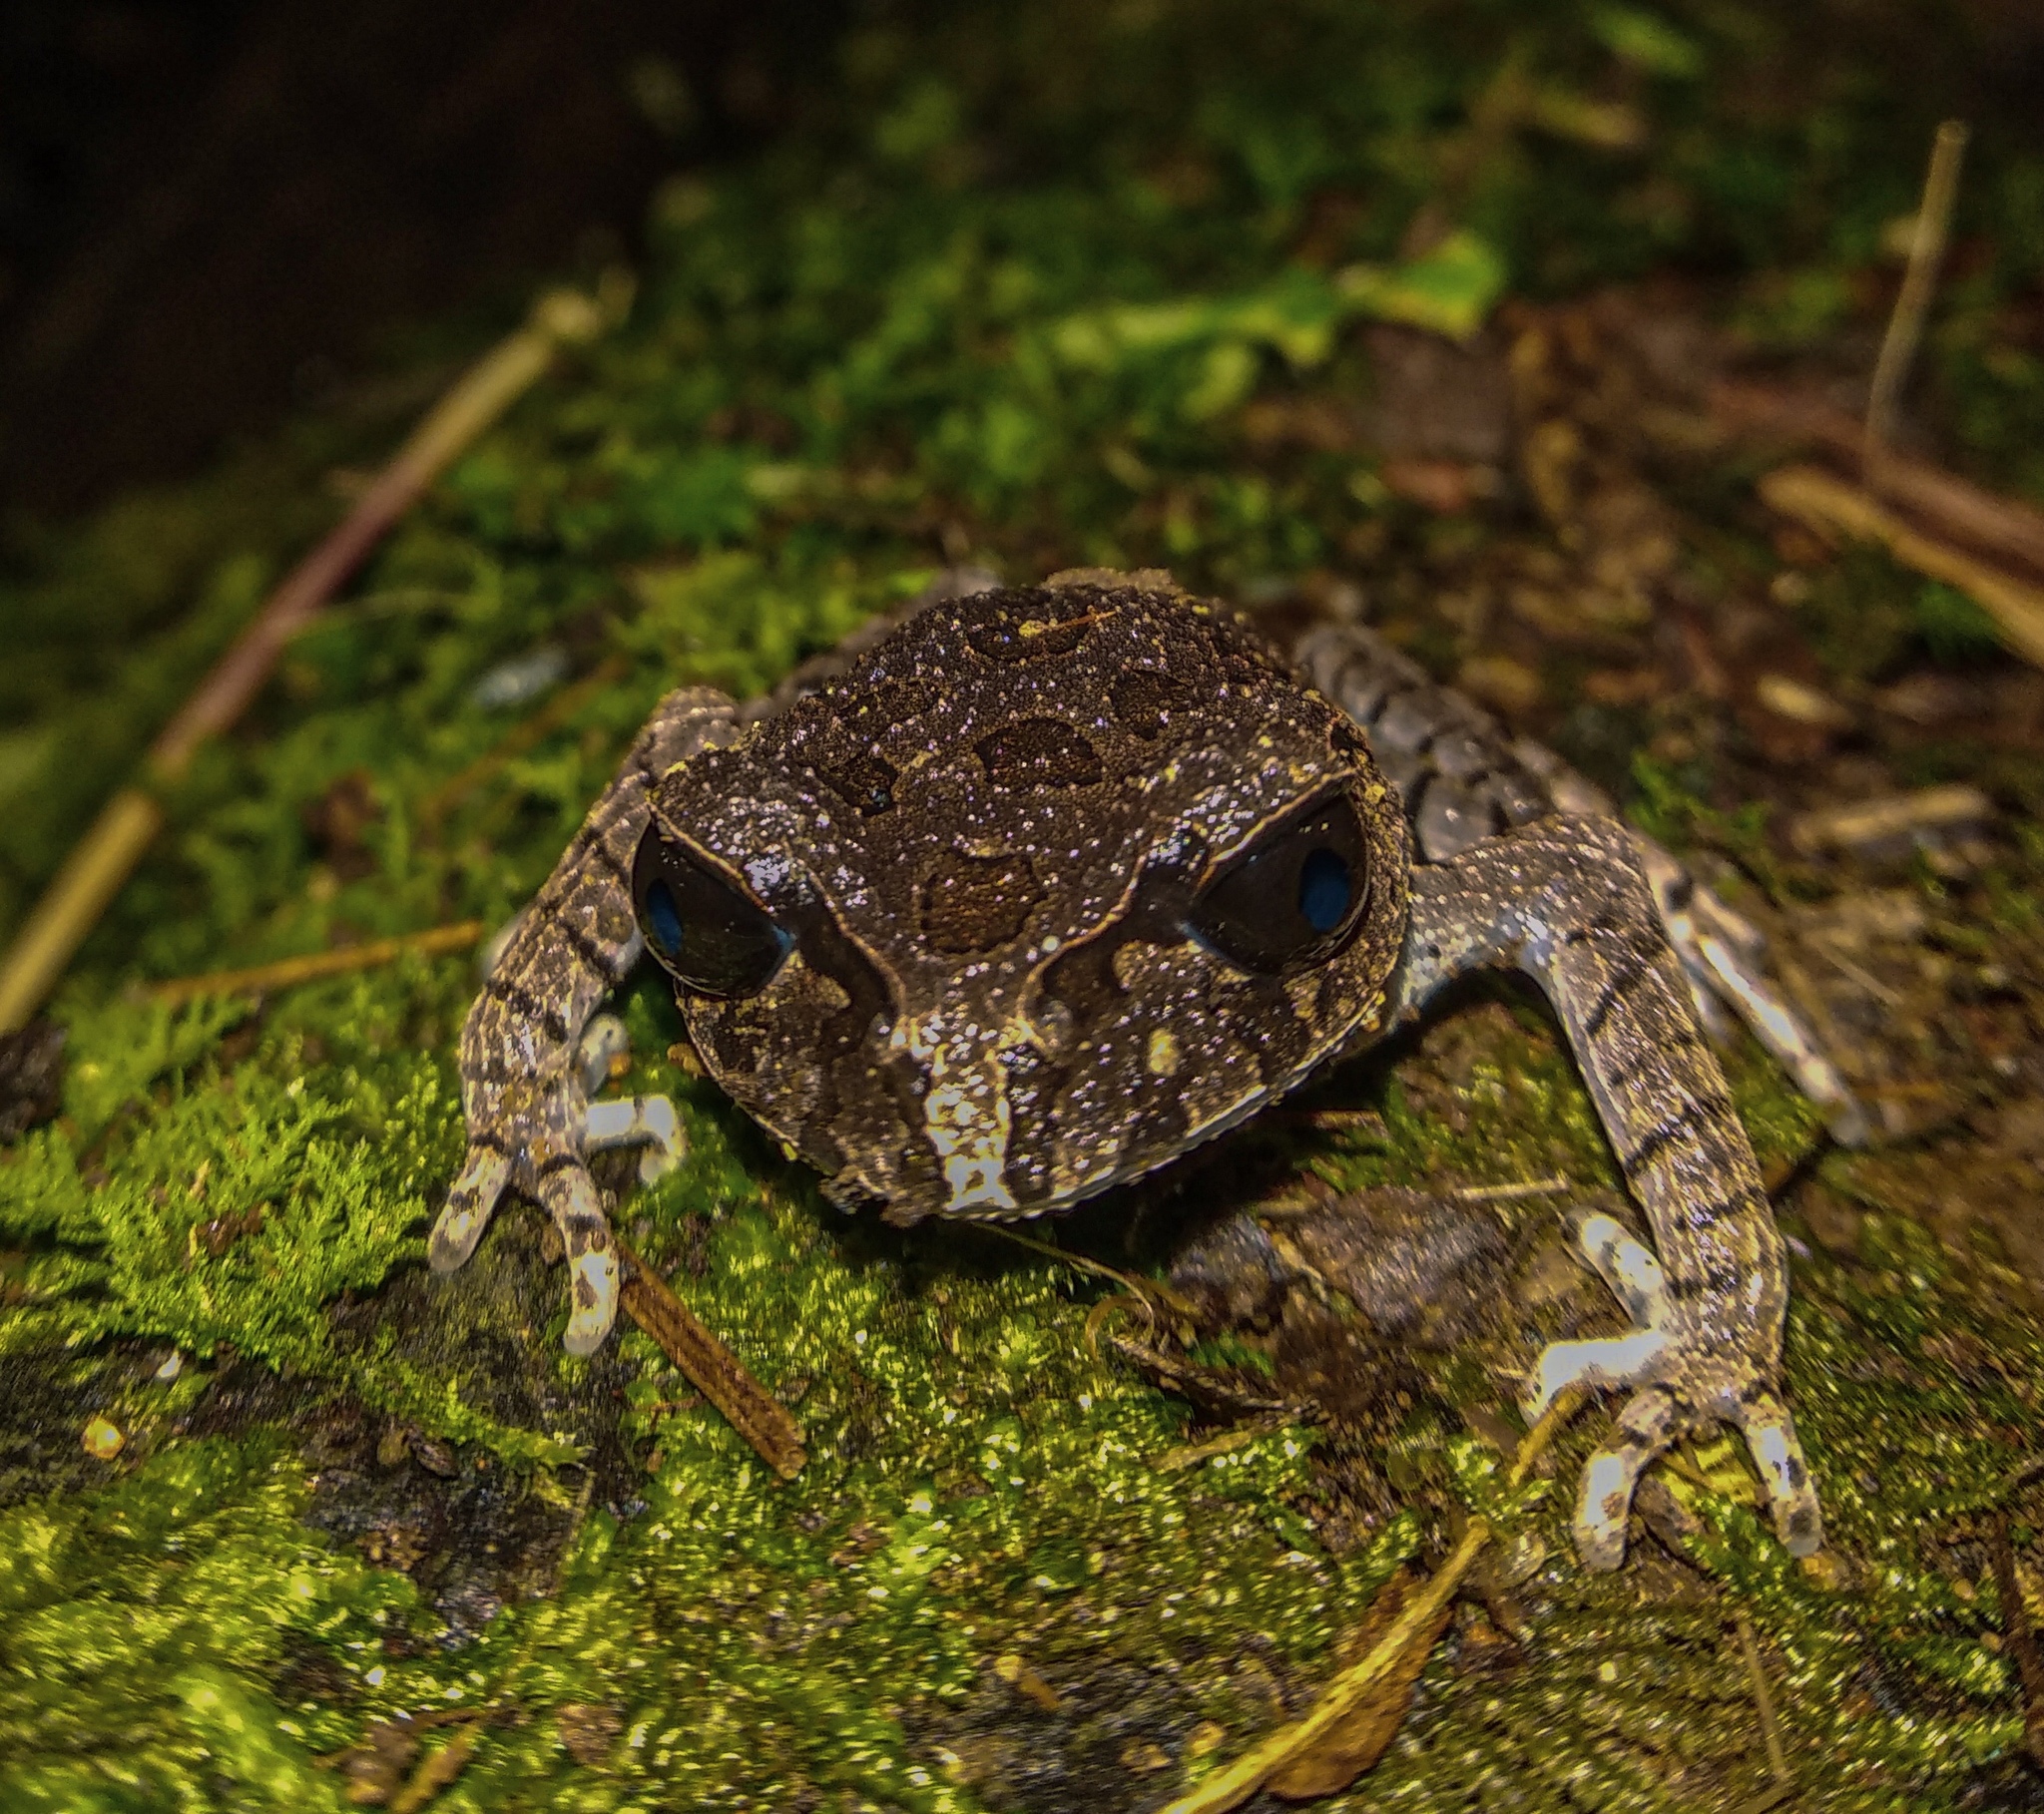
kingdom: Animalia
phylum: Chordata
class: Amphibia
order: Anura
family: Megophryidae
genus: Leptobrachium
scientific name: Leptobrachium hasseltii
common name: Hasselt's litter frog
